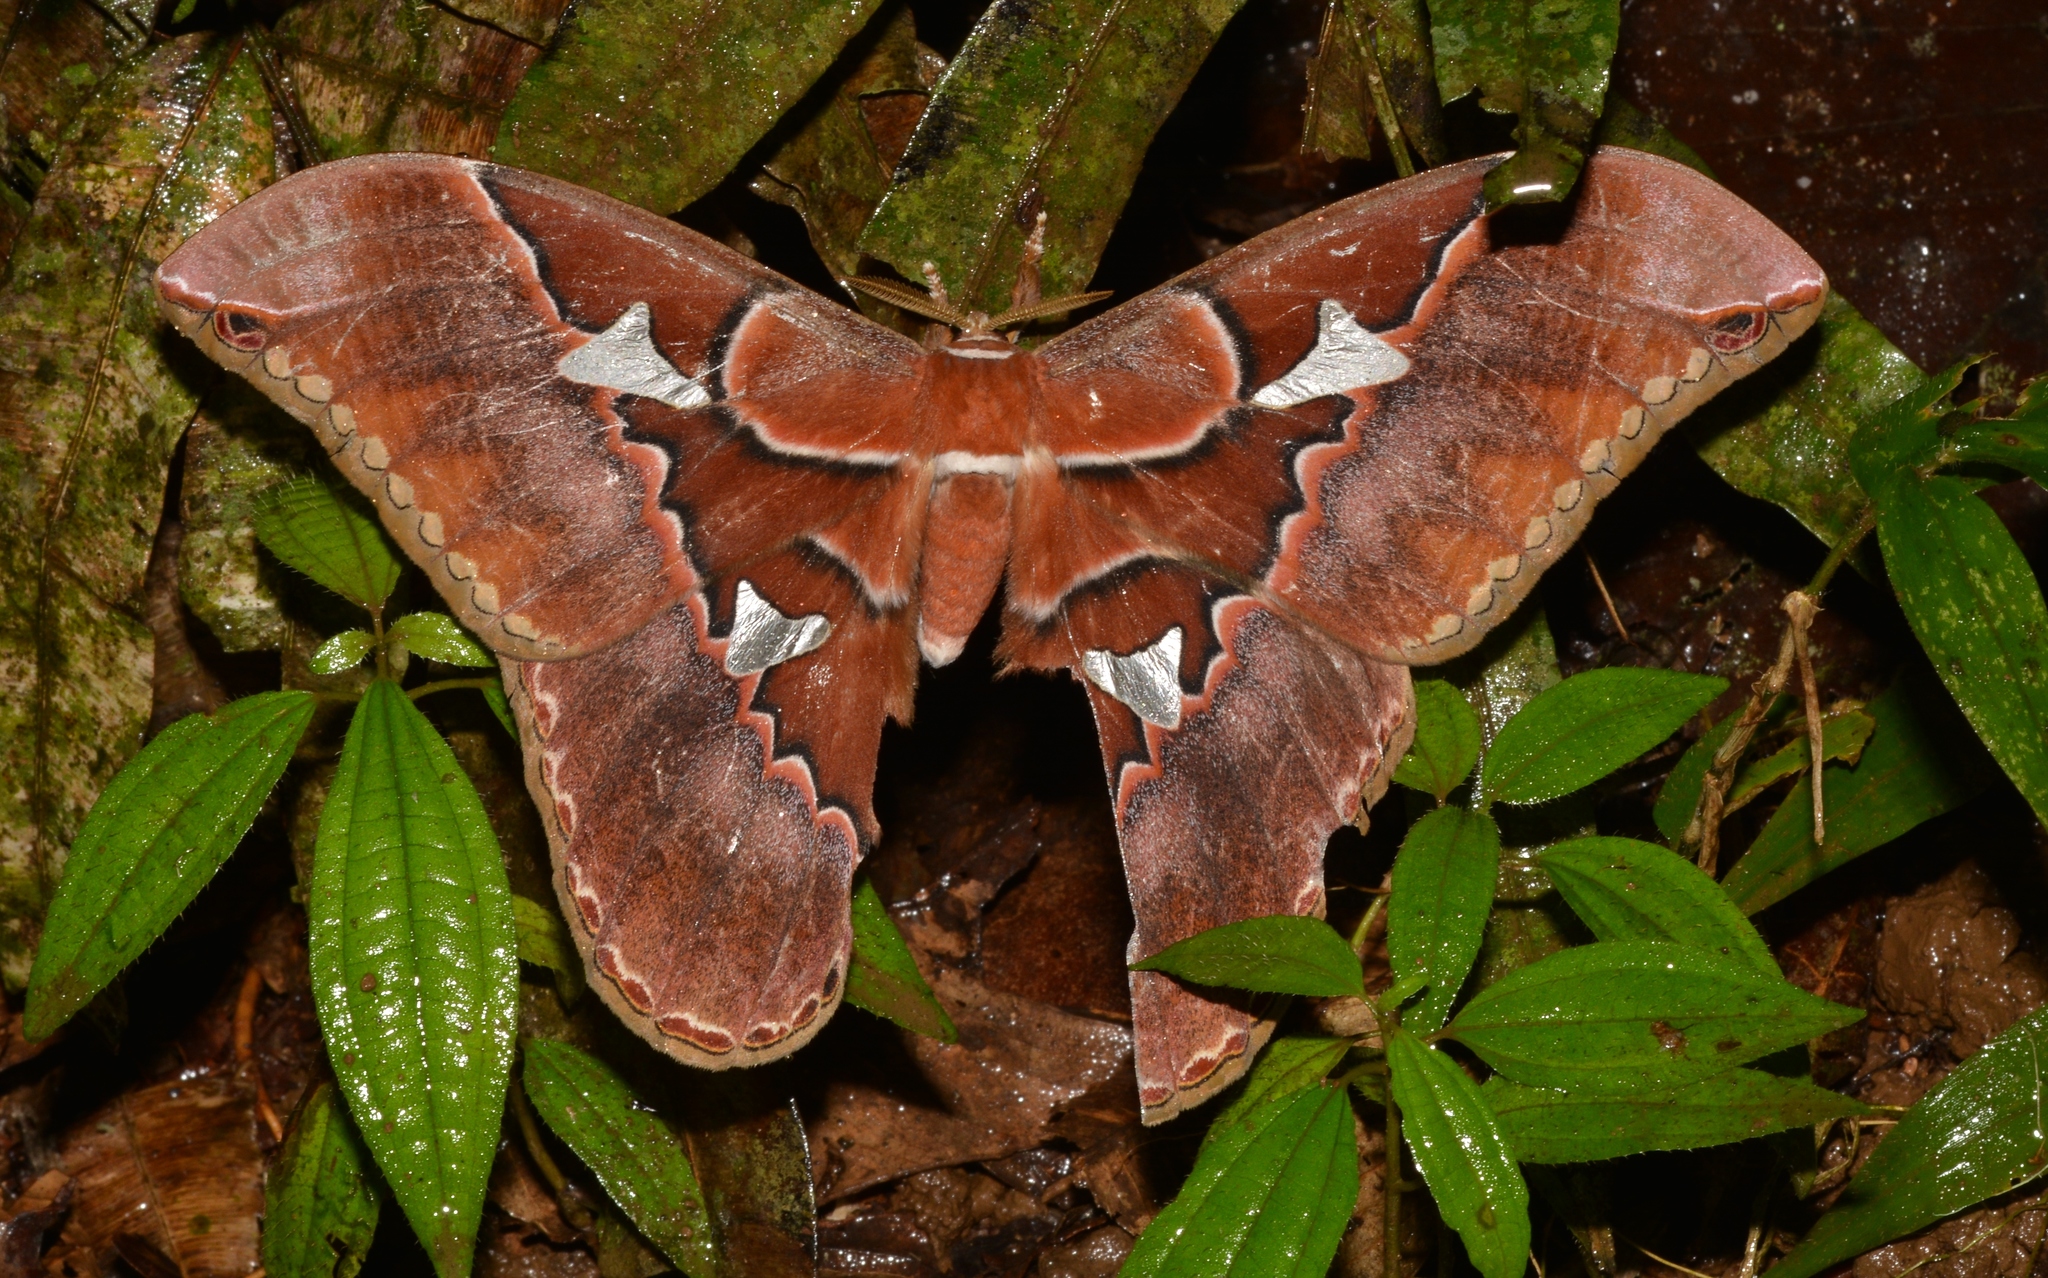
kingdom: Animalia
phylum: Arthropoda
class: Insecta
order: Lepidoptera
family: Saturniidae
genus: Rothschildia
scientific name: Rothschildia triloba
